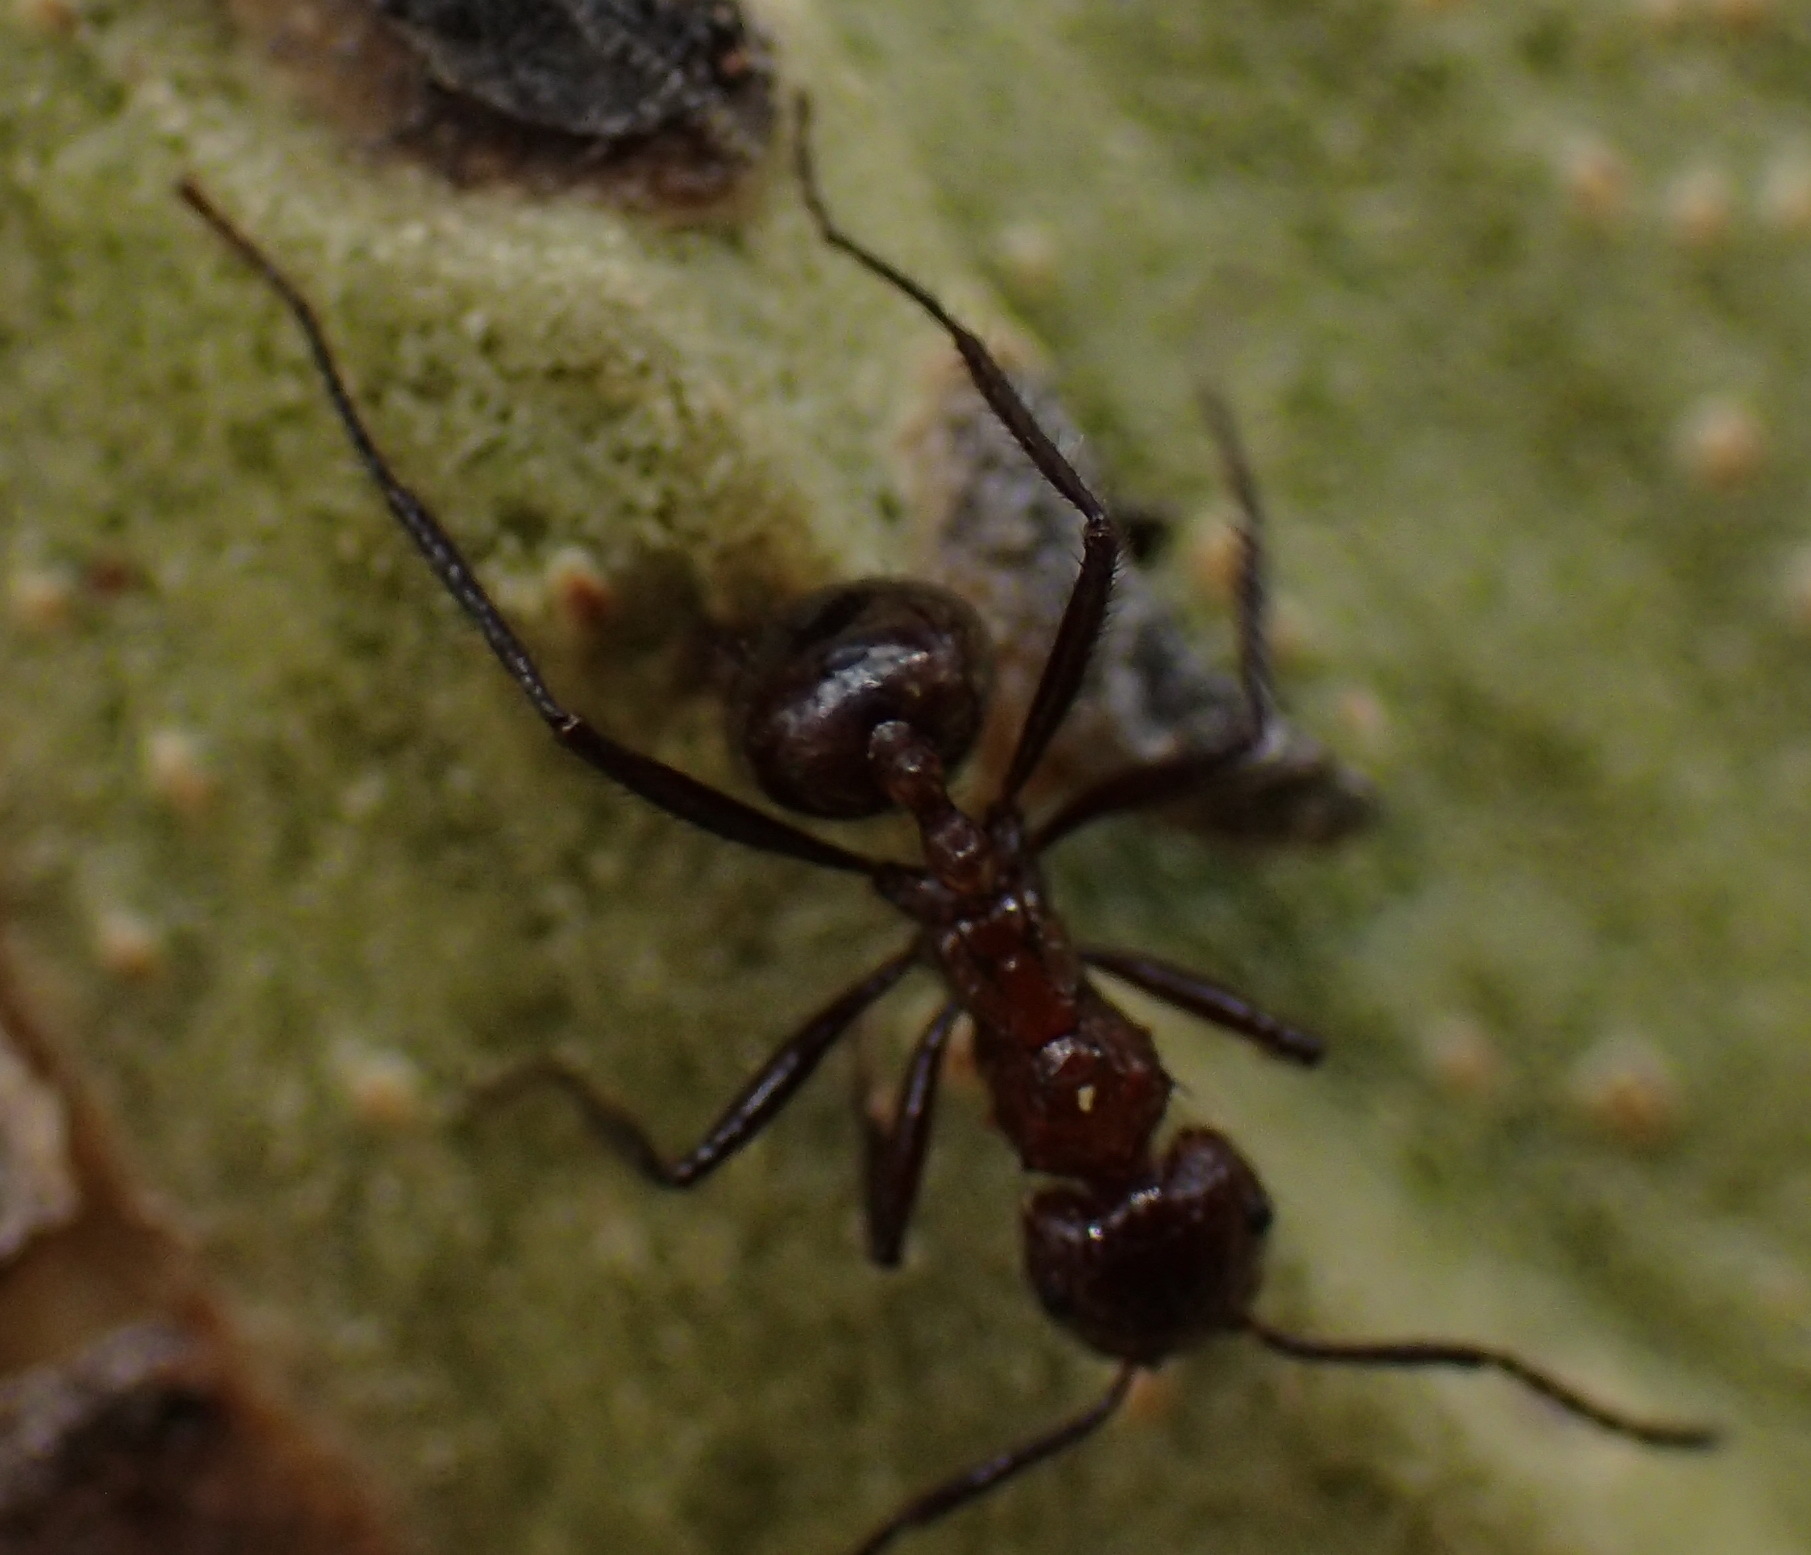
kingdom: Animalia
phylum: Arthropoda
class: Insecta
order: Hymenoptera
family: Formicidae
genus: Myrmicaria
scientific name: Myrmicaria natalensis
